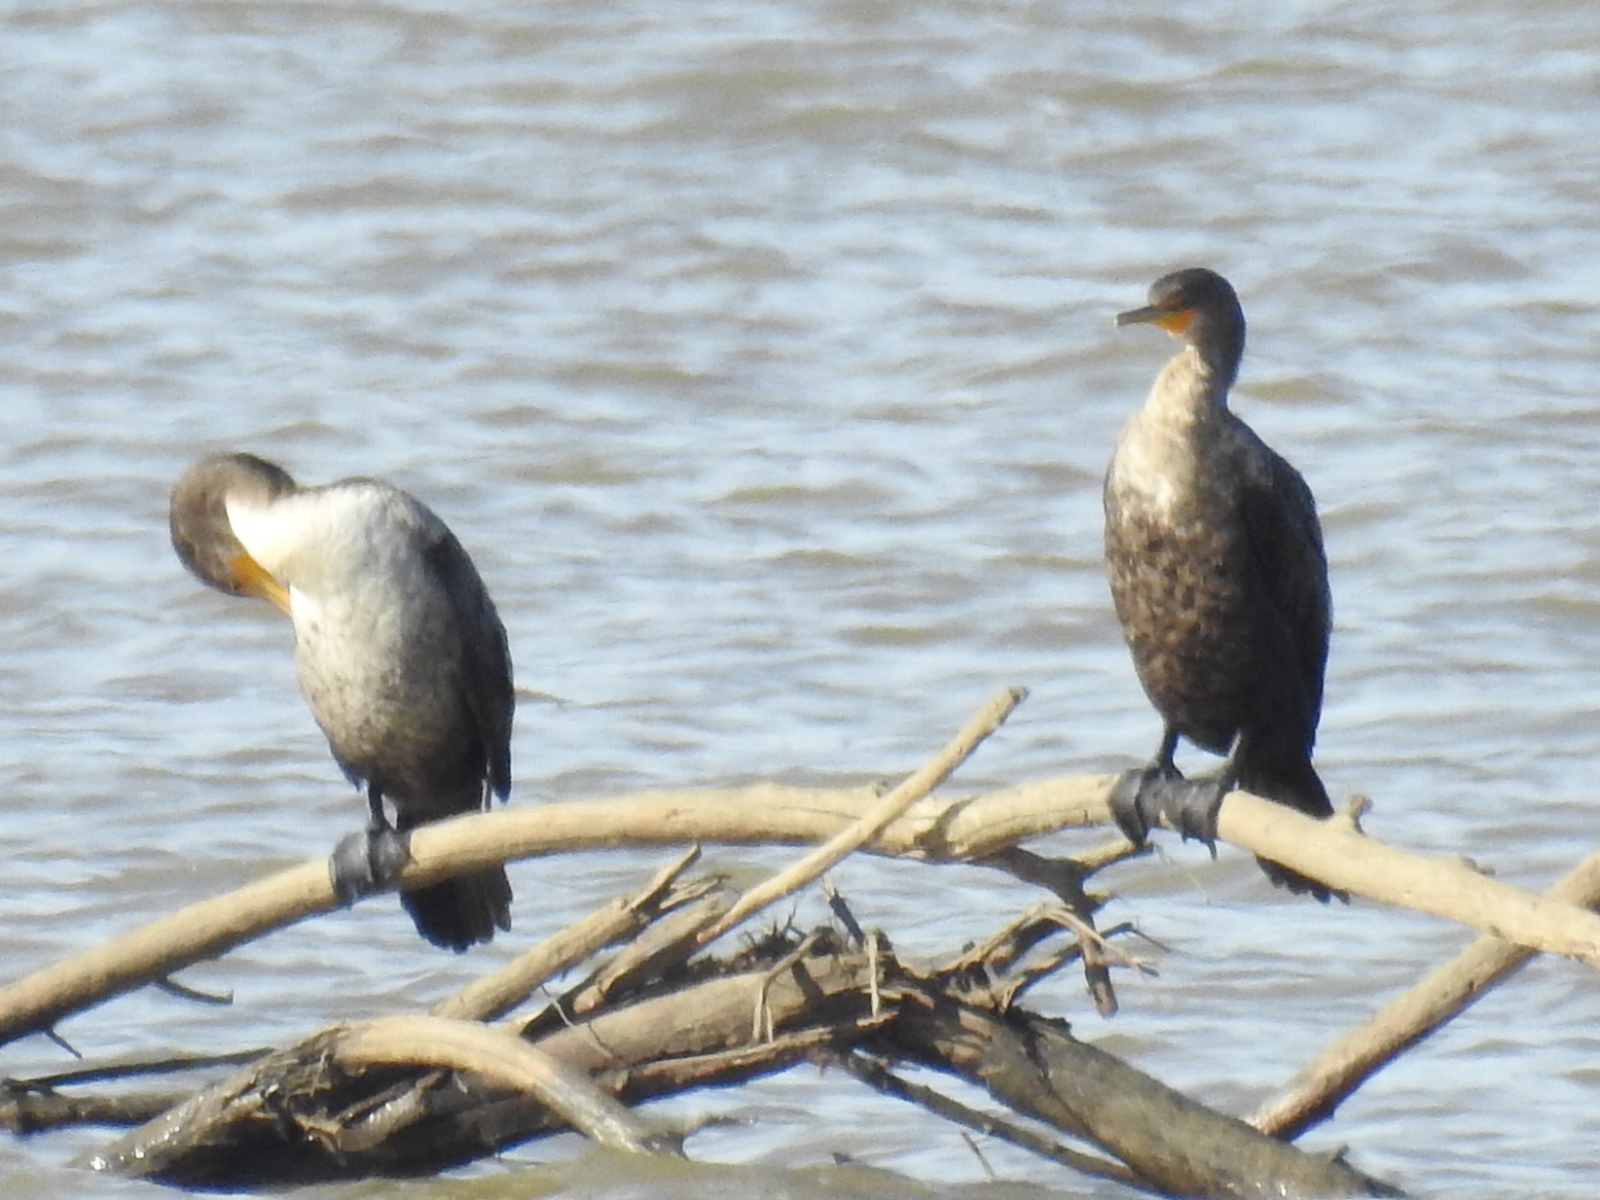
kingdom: Animalia
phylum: Chordata
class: Aves
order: Suliformes
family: Phalacrocoracidae
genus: Phalacrocorax
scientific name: Phalacrocorax auritus
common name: Double-crested cormorant
